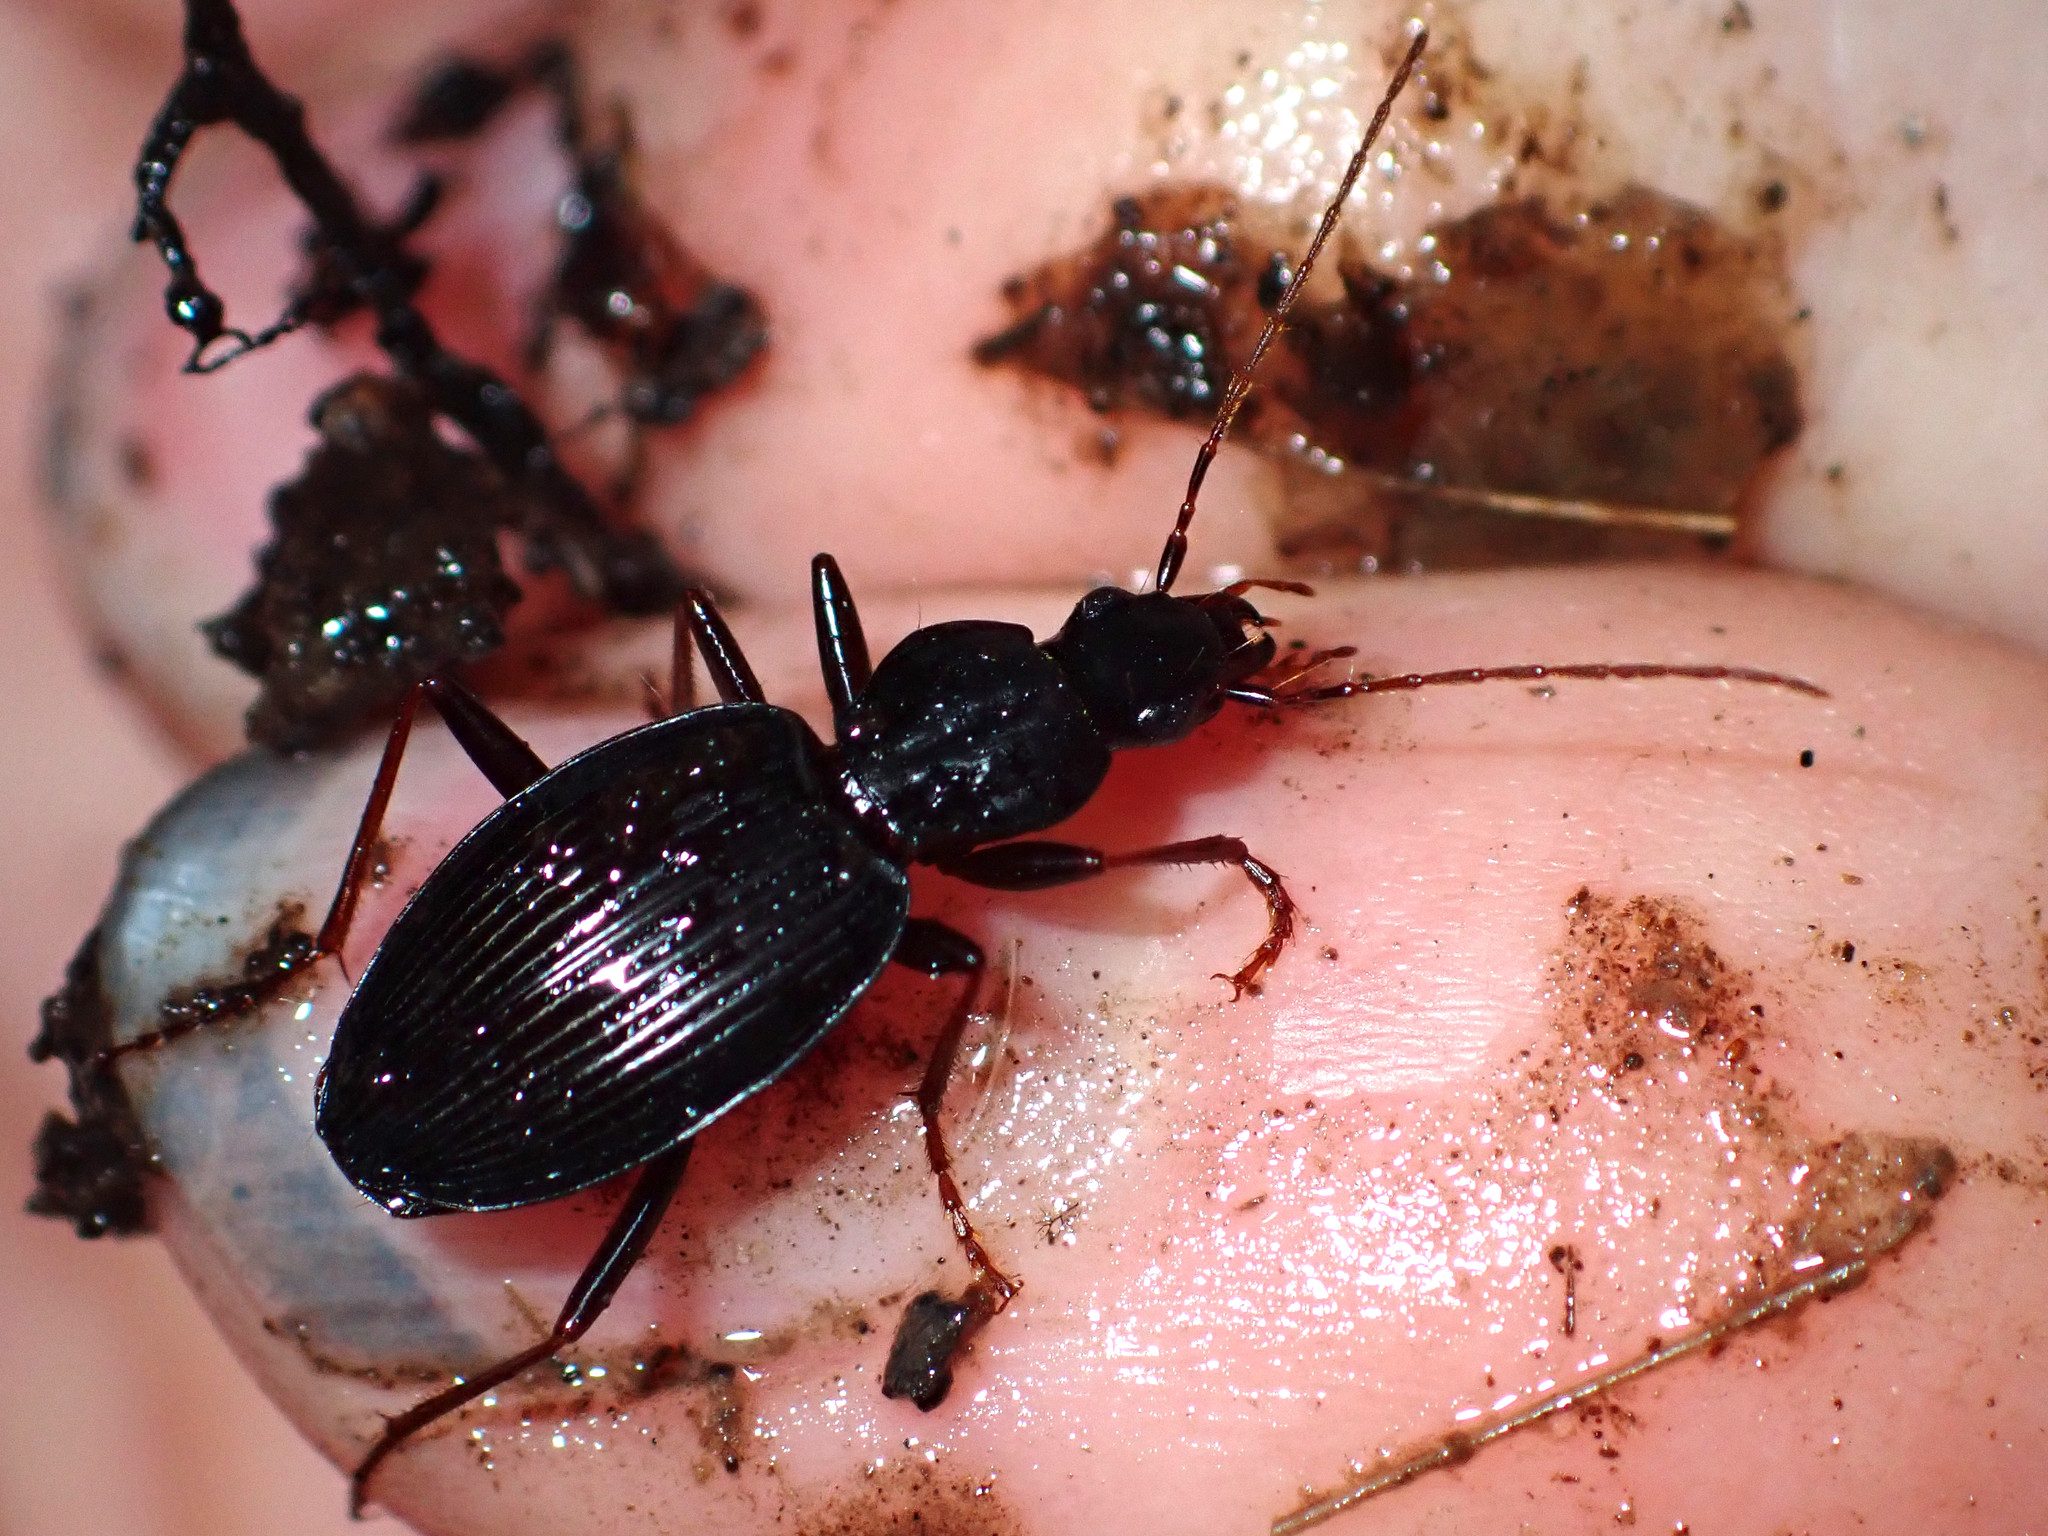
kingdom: Animalia
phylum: Arthropoda
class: Insecta
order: Coleoptera
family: Carabidae
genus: Ctenognathus
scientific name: Ctenognathus novaezelandiae
